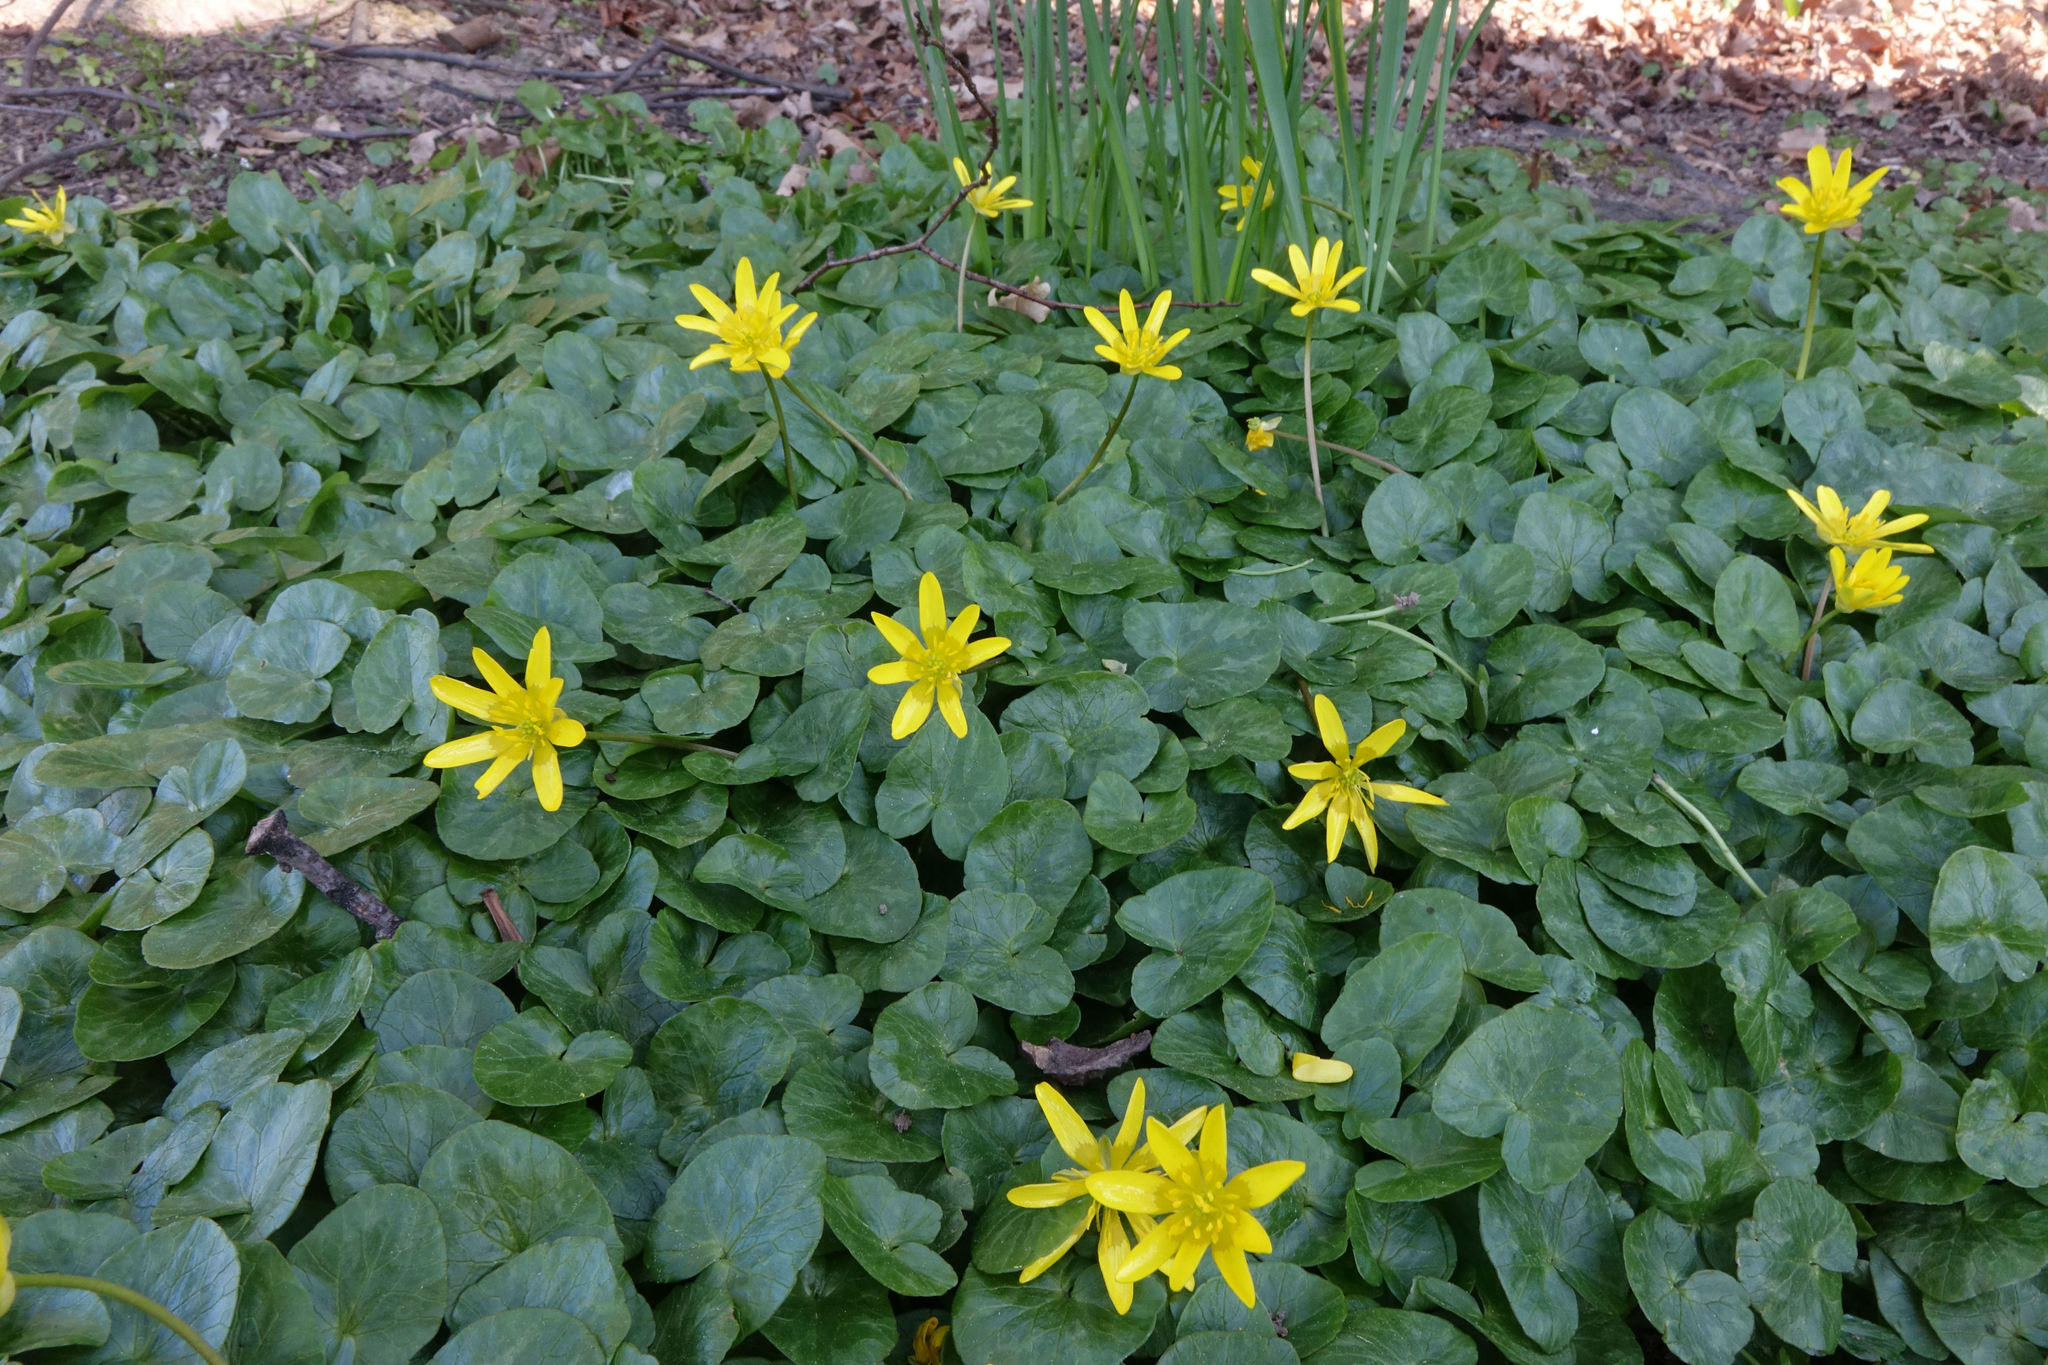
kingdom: Plantae
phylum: Tracheophyta
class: Magnoliopsida
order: Ranunculales
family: Ranunculaceae
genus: Ficaria
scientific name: Ficaria verna
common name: Lesser celandine
